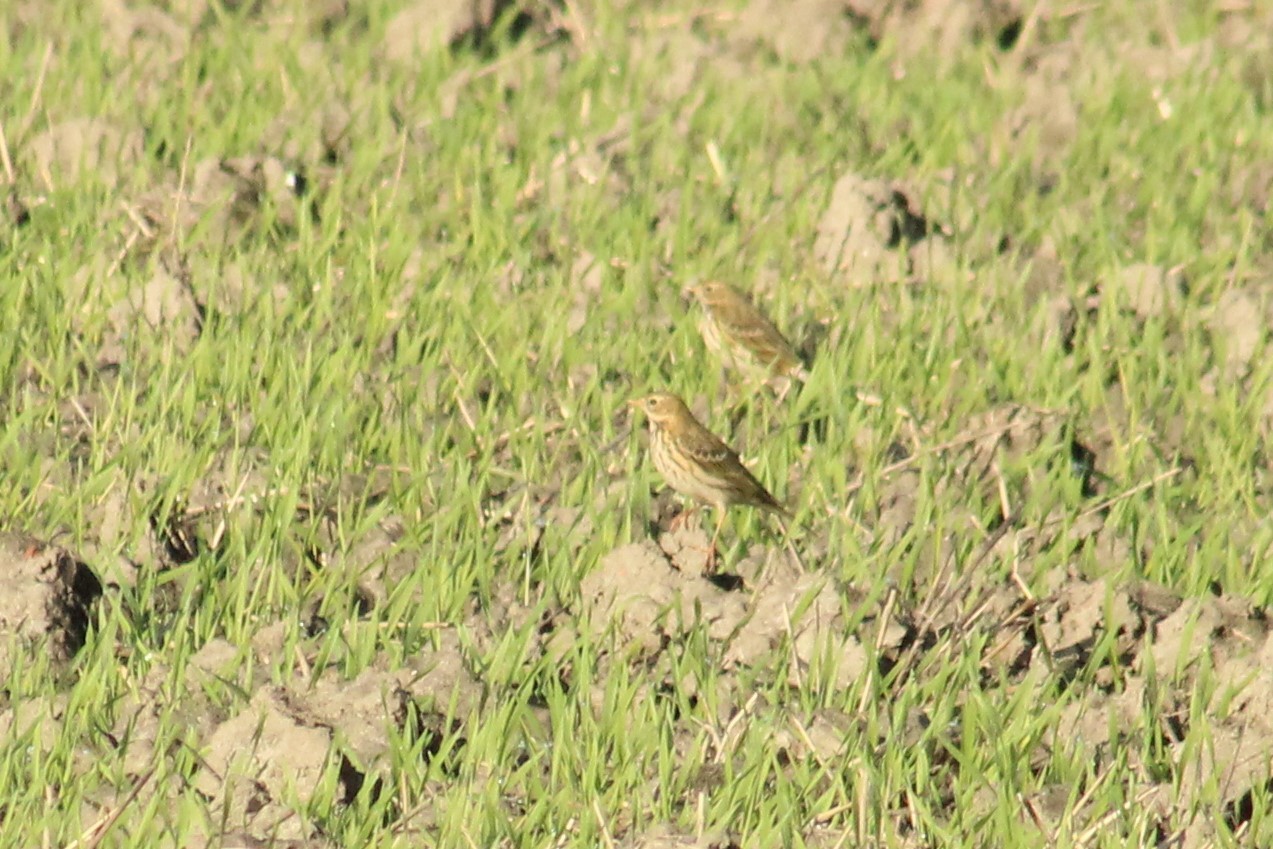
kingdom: Animalia
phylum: Chordata
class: Aves
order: Passeriformes
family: Motacillidae
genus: Anthus
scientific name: Anthus pratensis
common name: Meadow pipit
